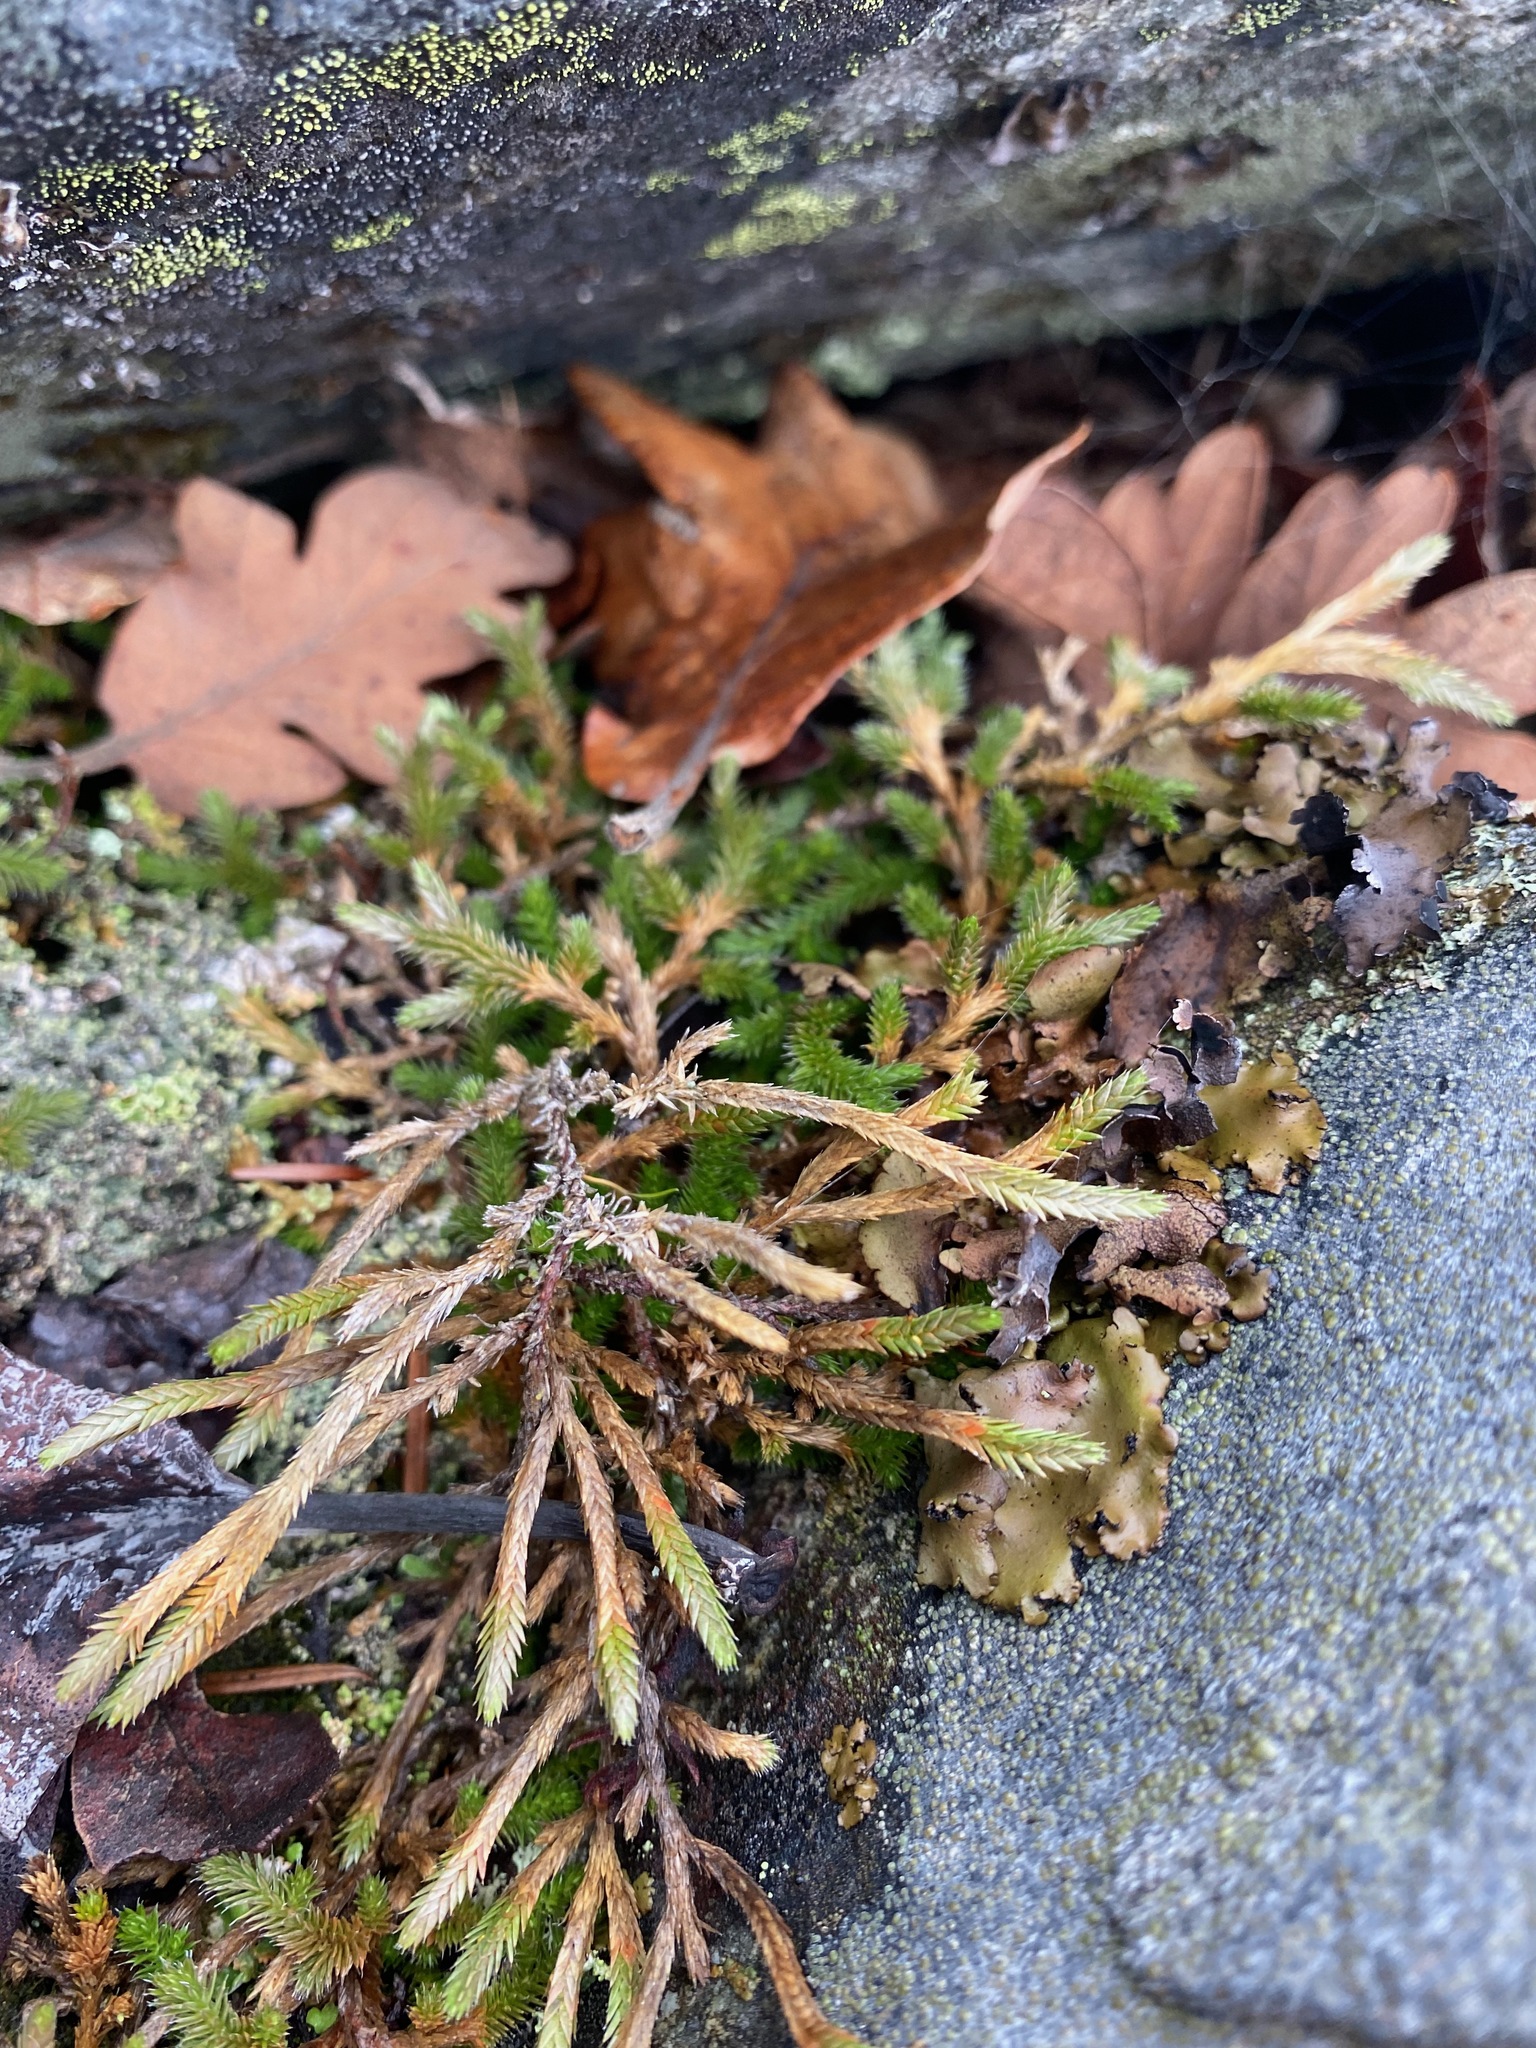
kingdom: Plantae
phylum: Tracheophyta
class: Lycopodiopsida
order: Selaginellales
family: Selaginellaceae
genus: Selaginella
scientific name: Selaginella wallacei
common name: Wallace's selaginella
